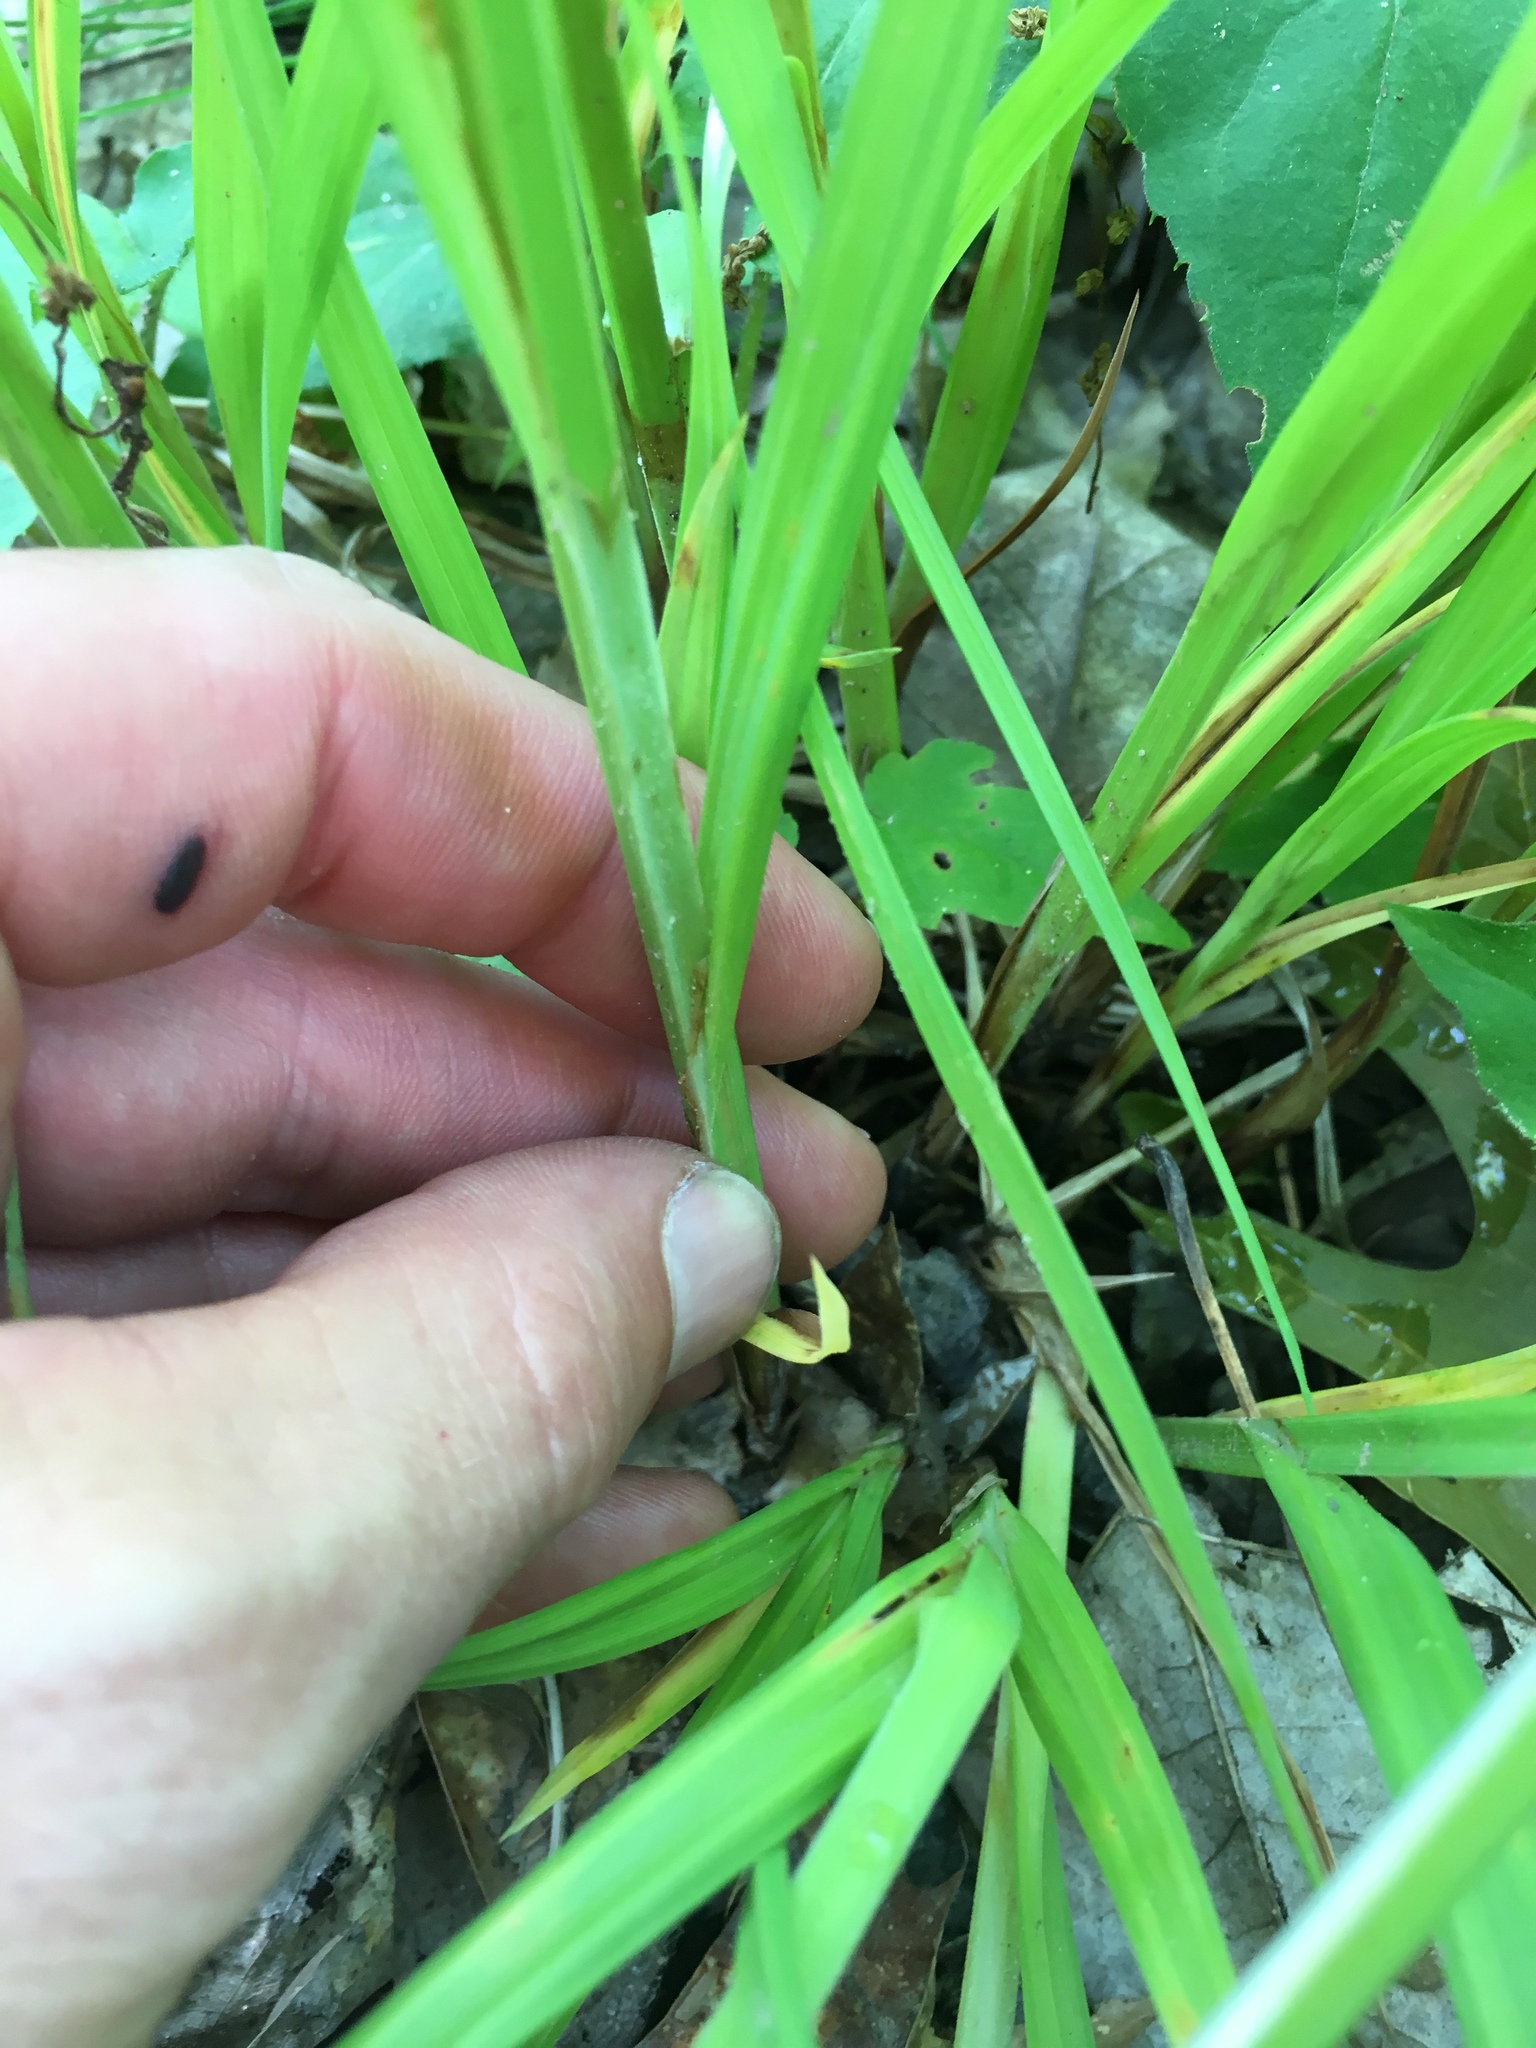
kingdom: Plantae
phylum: Tracheophyta
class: Liliopsida
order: Poales
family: Cyperaceae
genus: Carex
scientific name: Carex gynandra
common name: Nodding sedge
